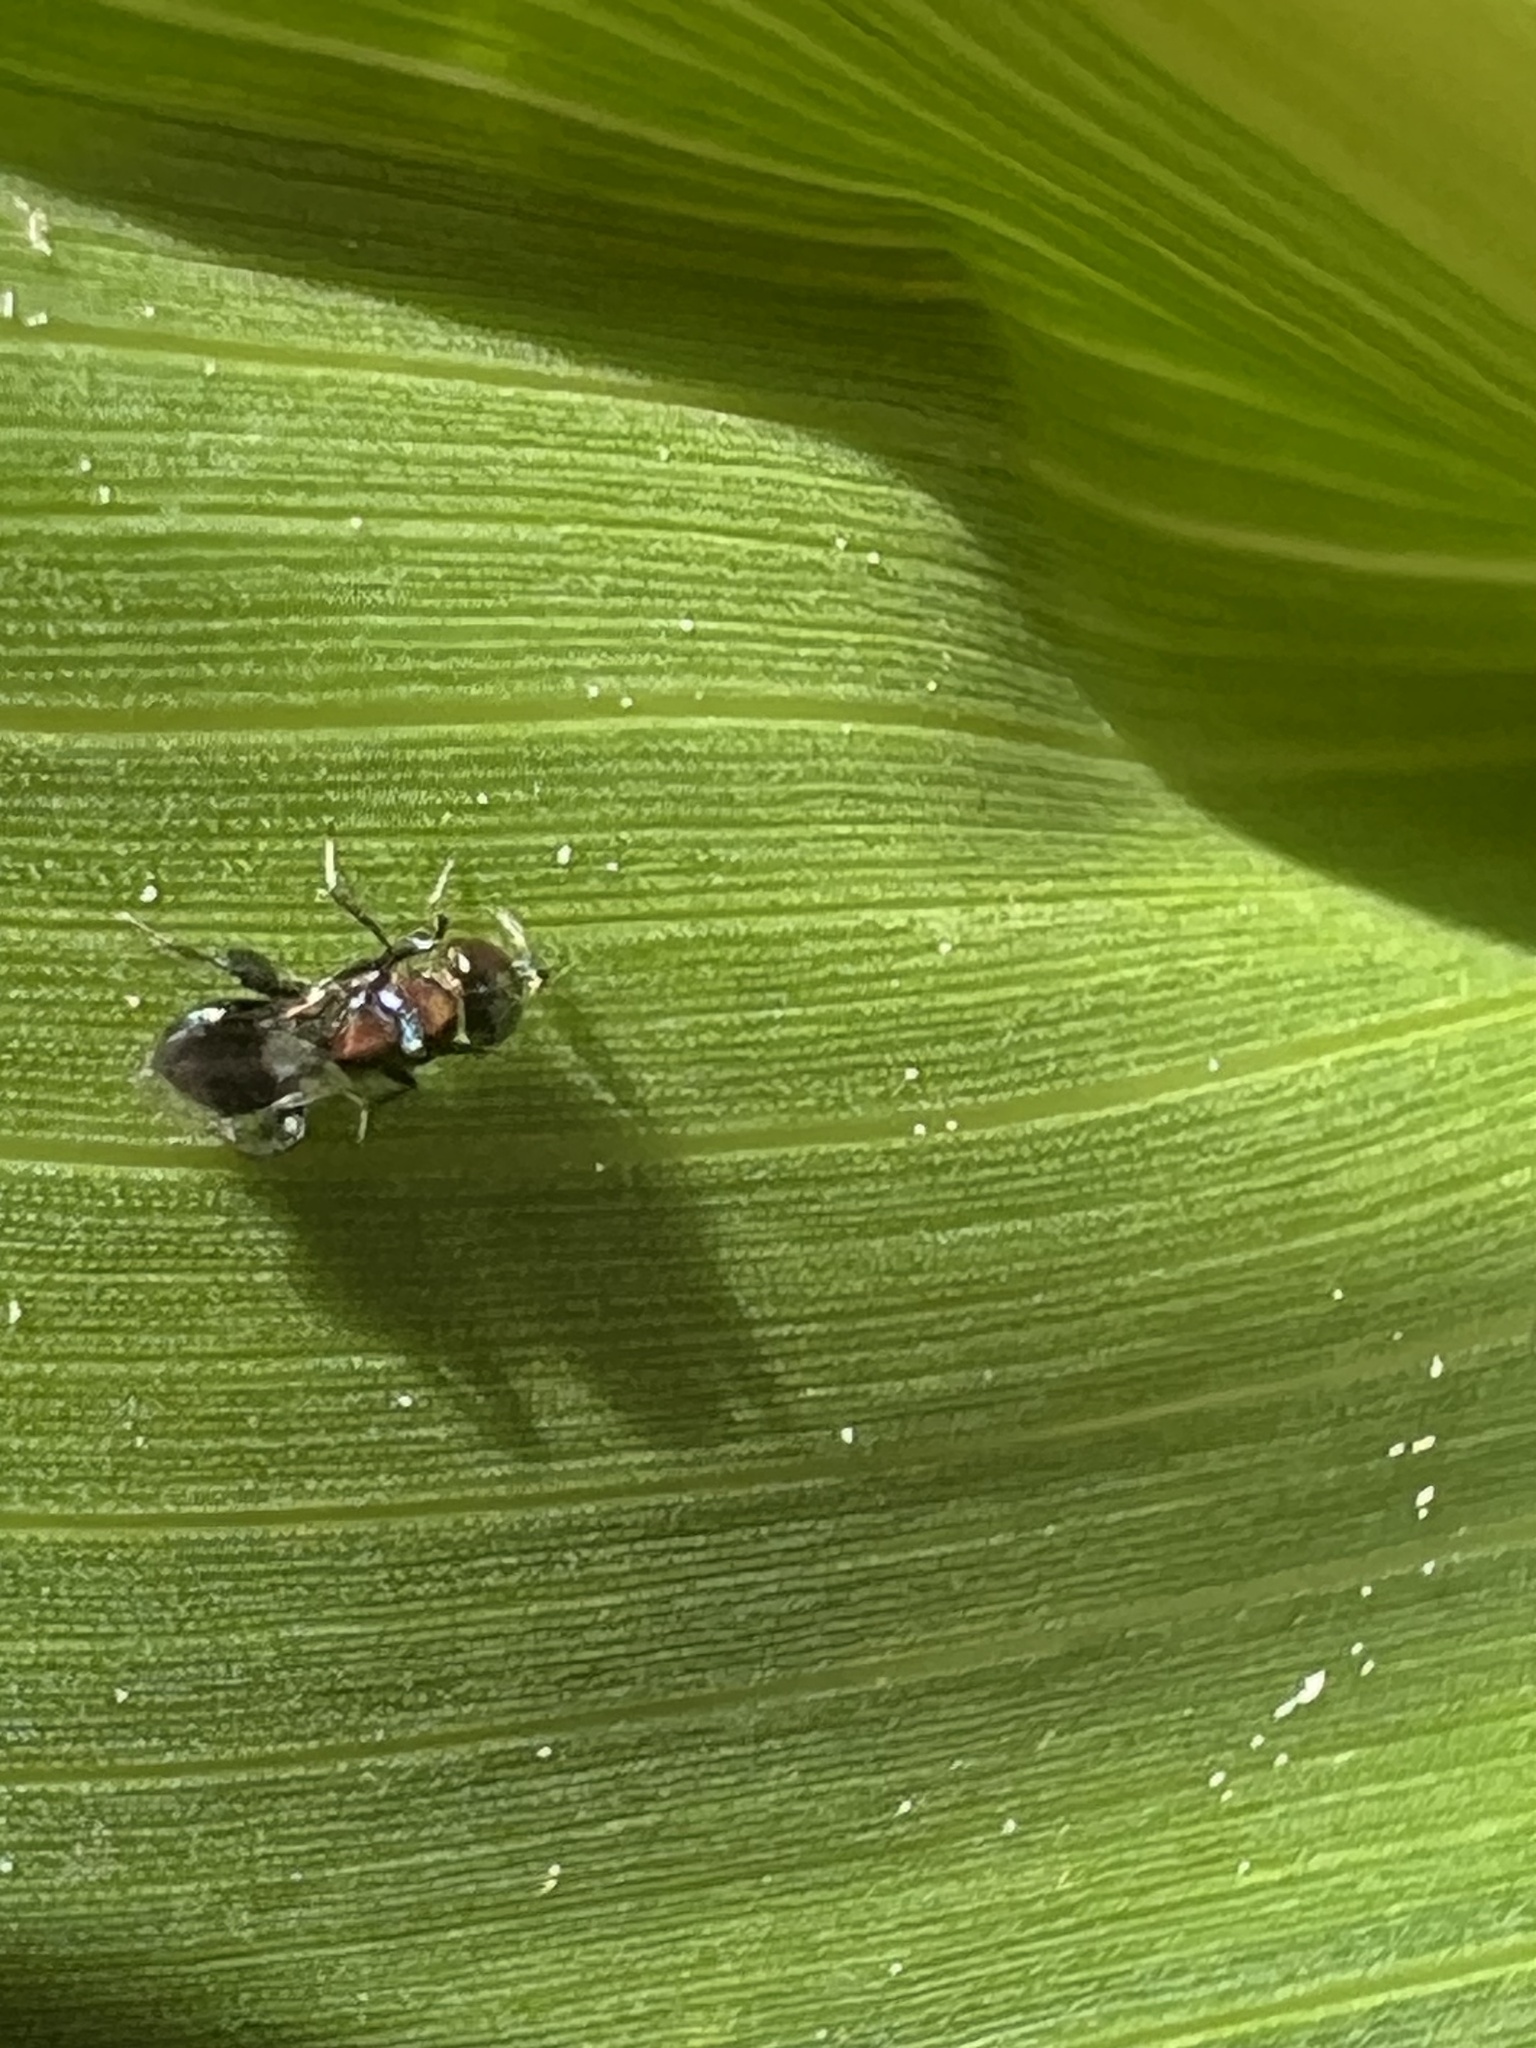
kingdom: Animalia
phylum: Arthropoda
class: Insecta
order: Hymenoptera
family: Pteromalidae
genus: Chalcedectus
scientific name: Chalcedectus maculipennis
